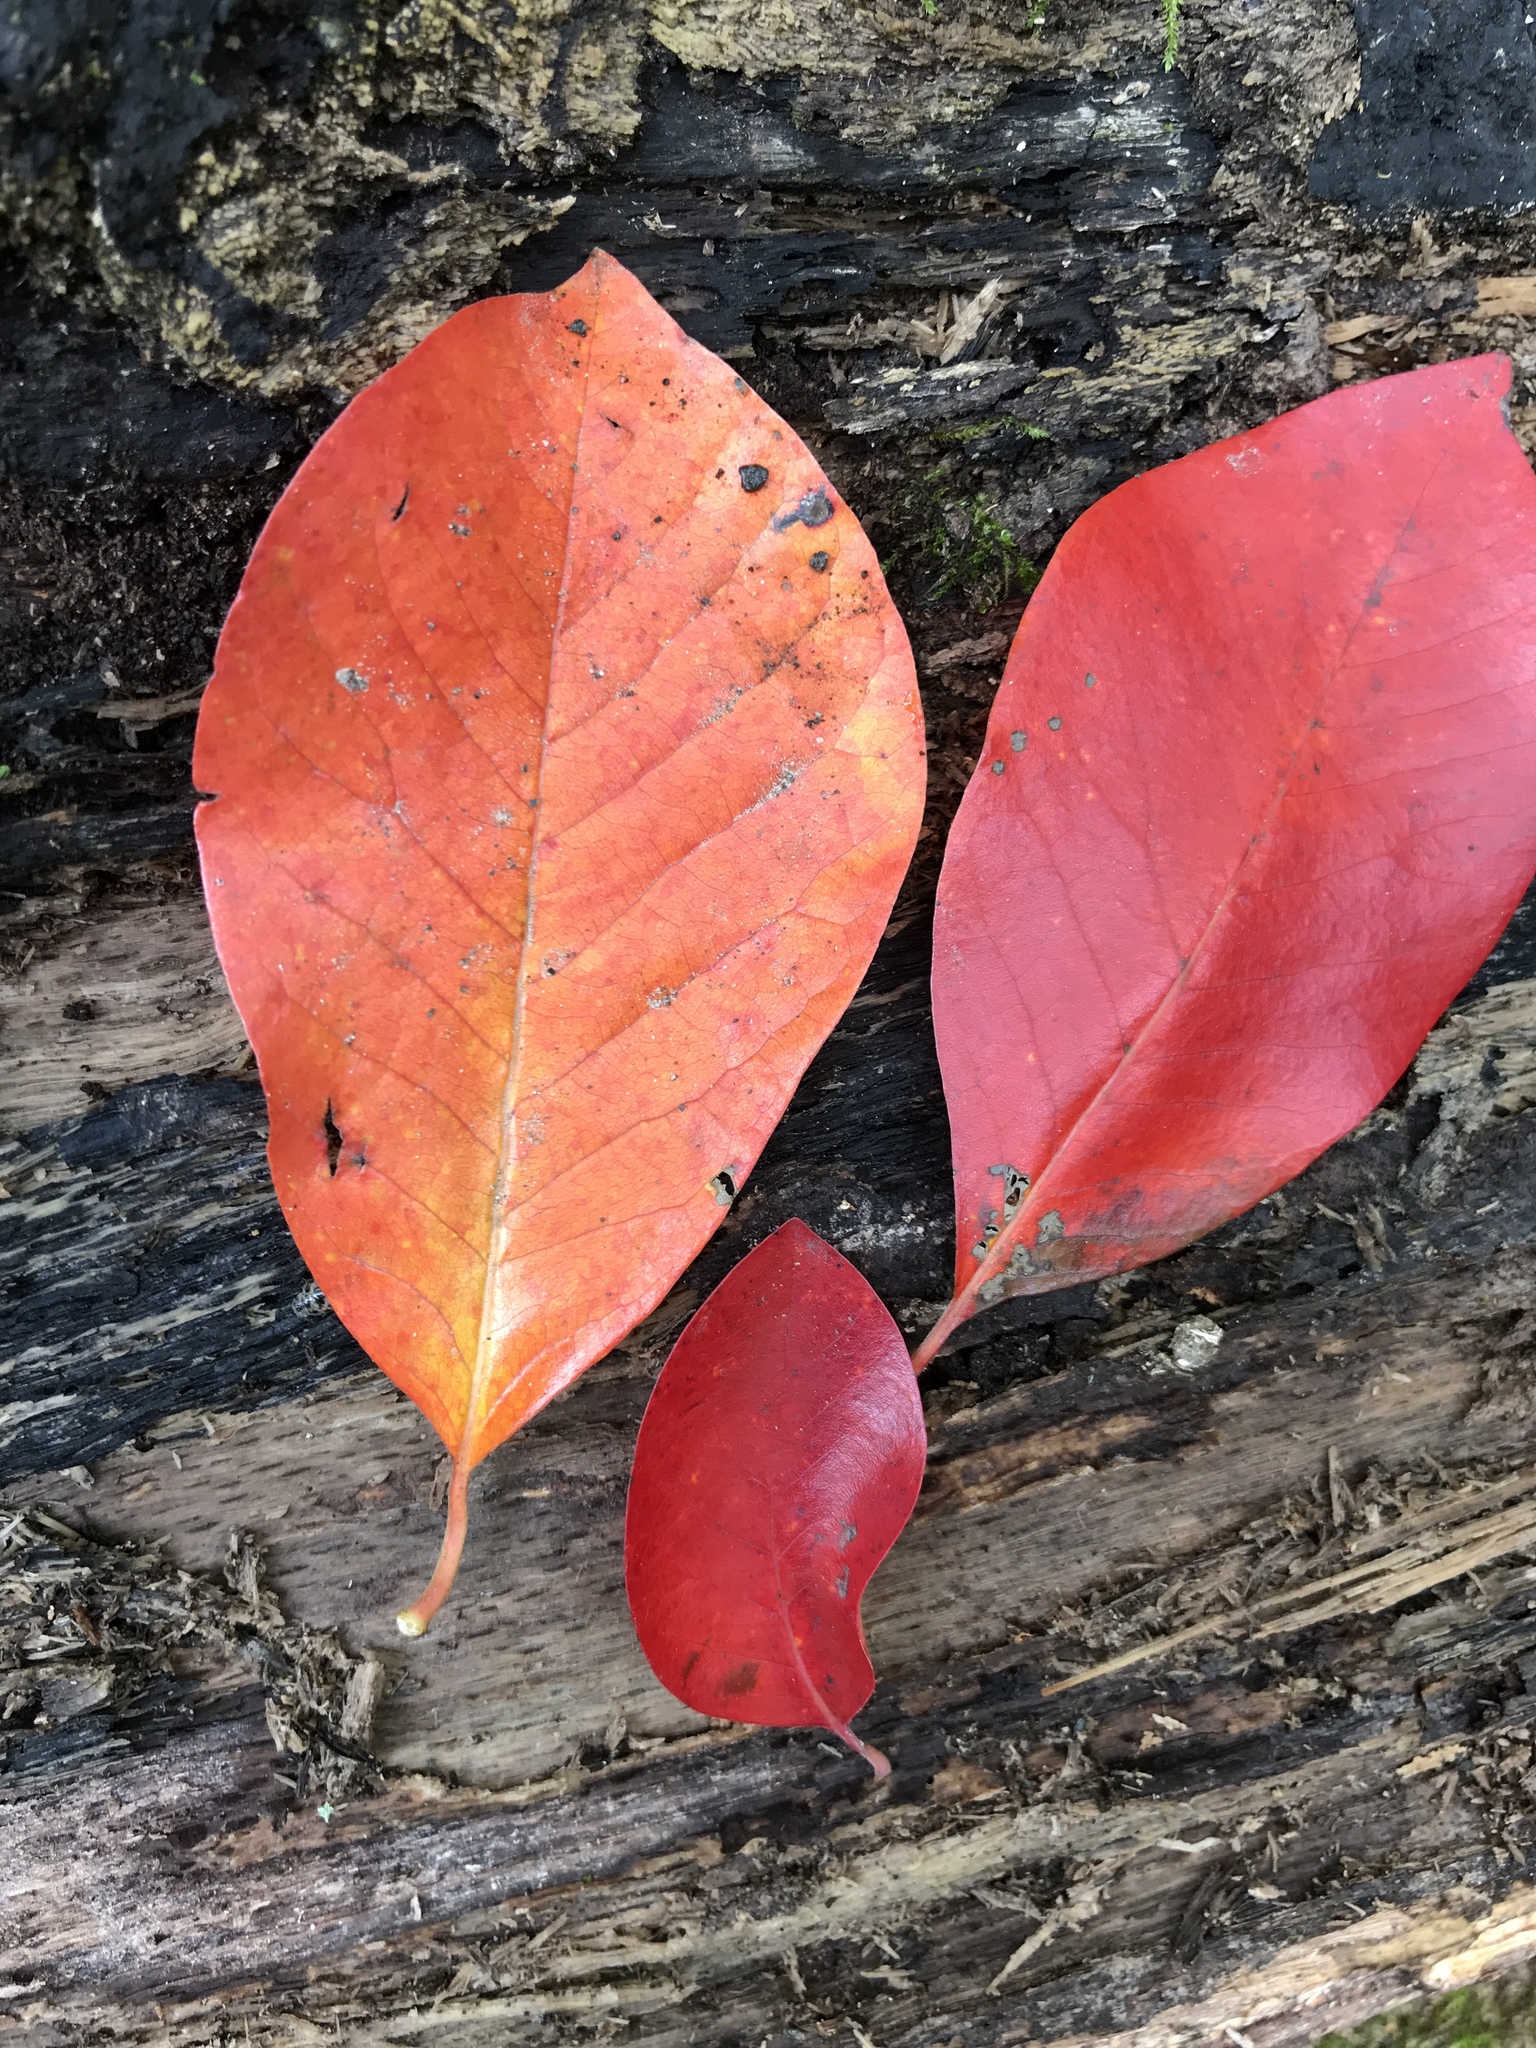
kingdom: Plantae
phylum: Tracheophyta
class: Magnoliopsida
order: Cornales
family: Nyssaceae
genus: Nyssa
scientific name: Nyssa sylvatica
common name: Black tupelo
